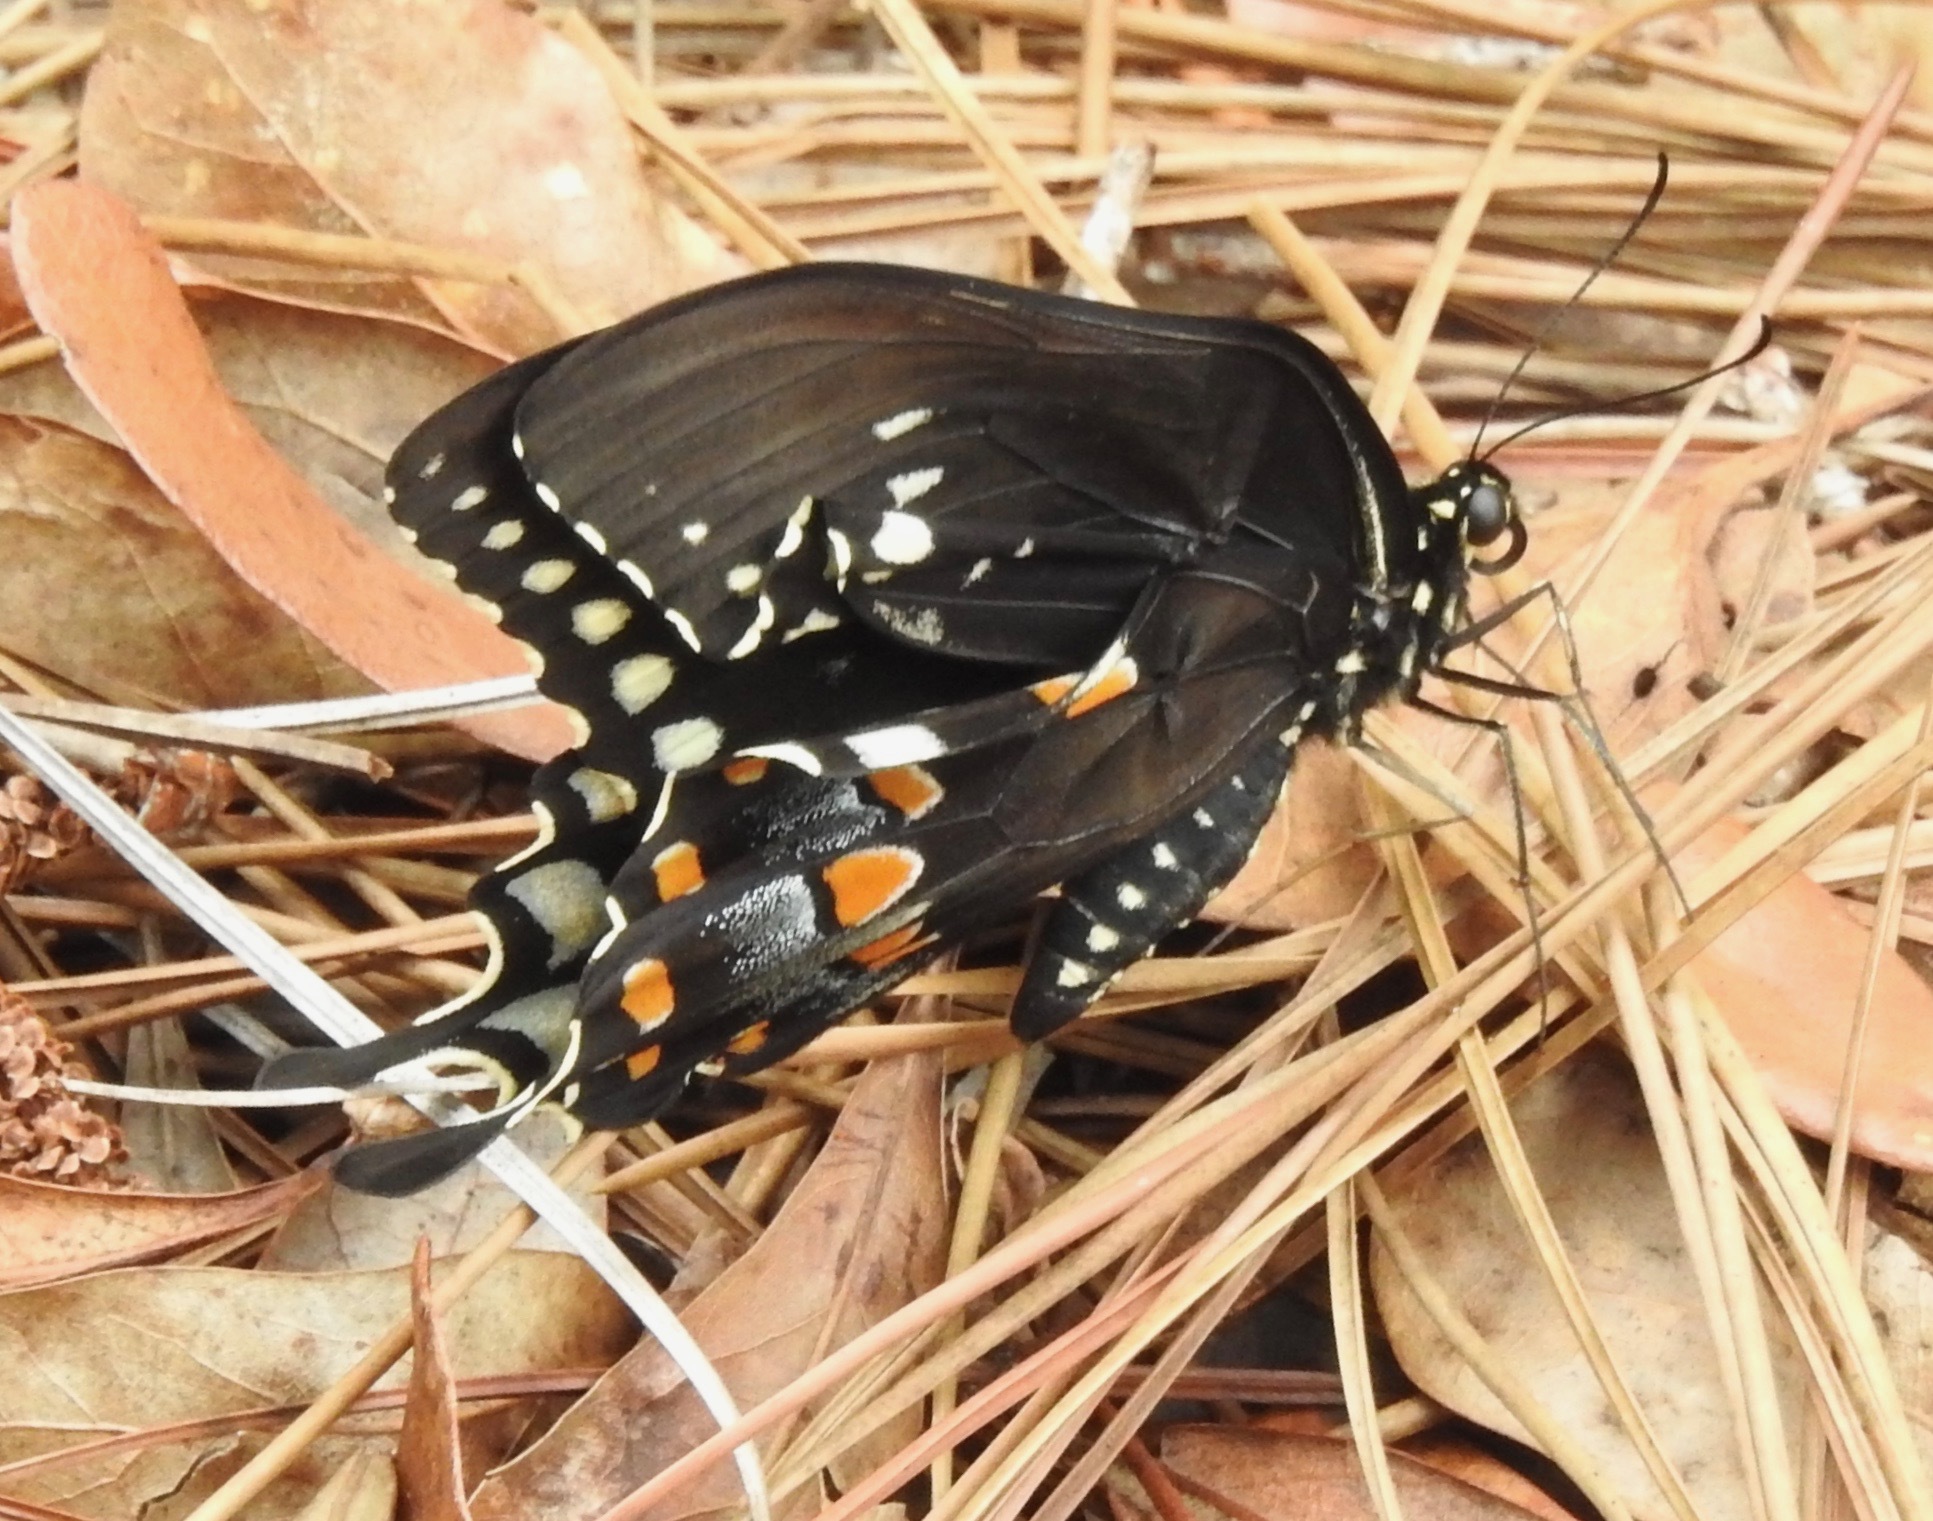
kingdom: Animalia
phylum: Arthropoda
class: Insecta
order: Lepidoptera
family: Papilionidae
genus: Papilio
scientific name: Papilio troilus
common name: Spicebush swallowtail
